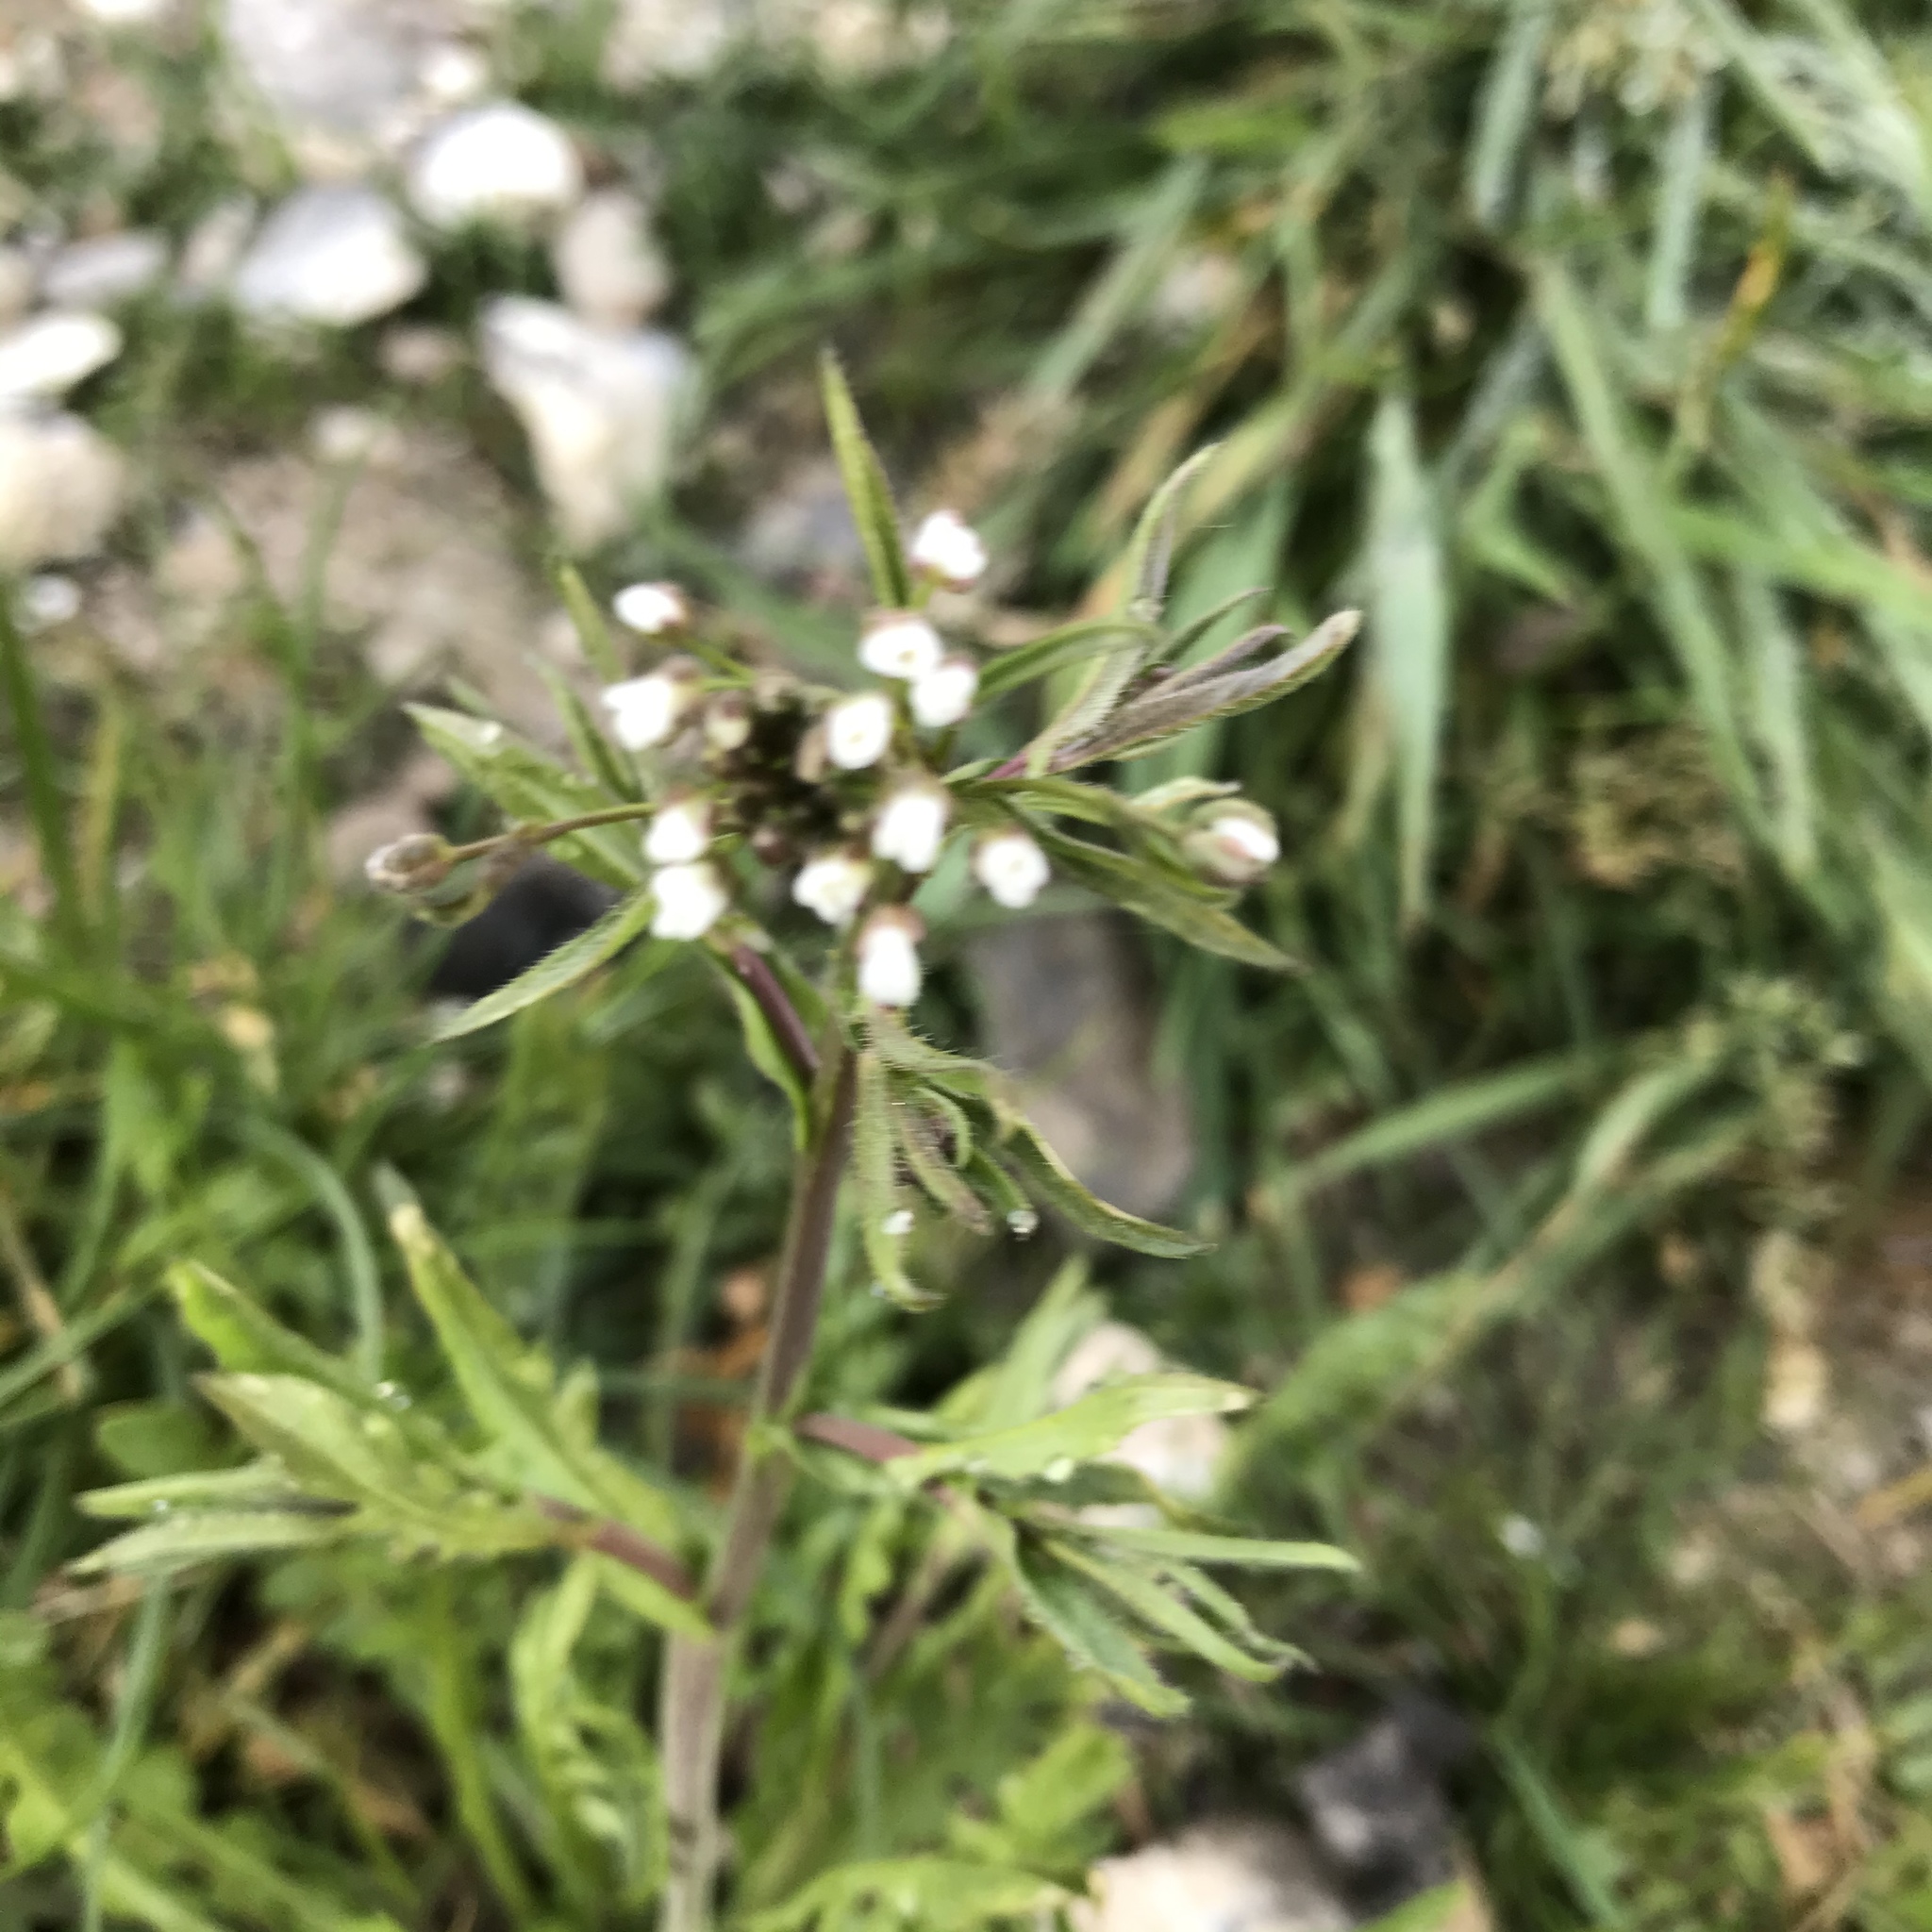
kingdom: Plantae
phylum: Tracheophyta
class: Magnoliopsida
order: Brassicales
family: Brassicaceae
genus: Capsella
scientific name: Capsella bursa-pastoris
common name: Shepherd's purse
